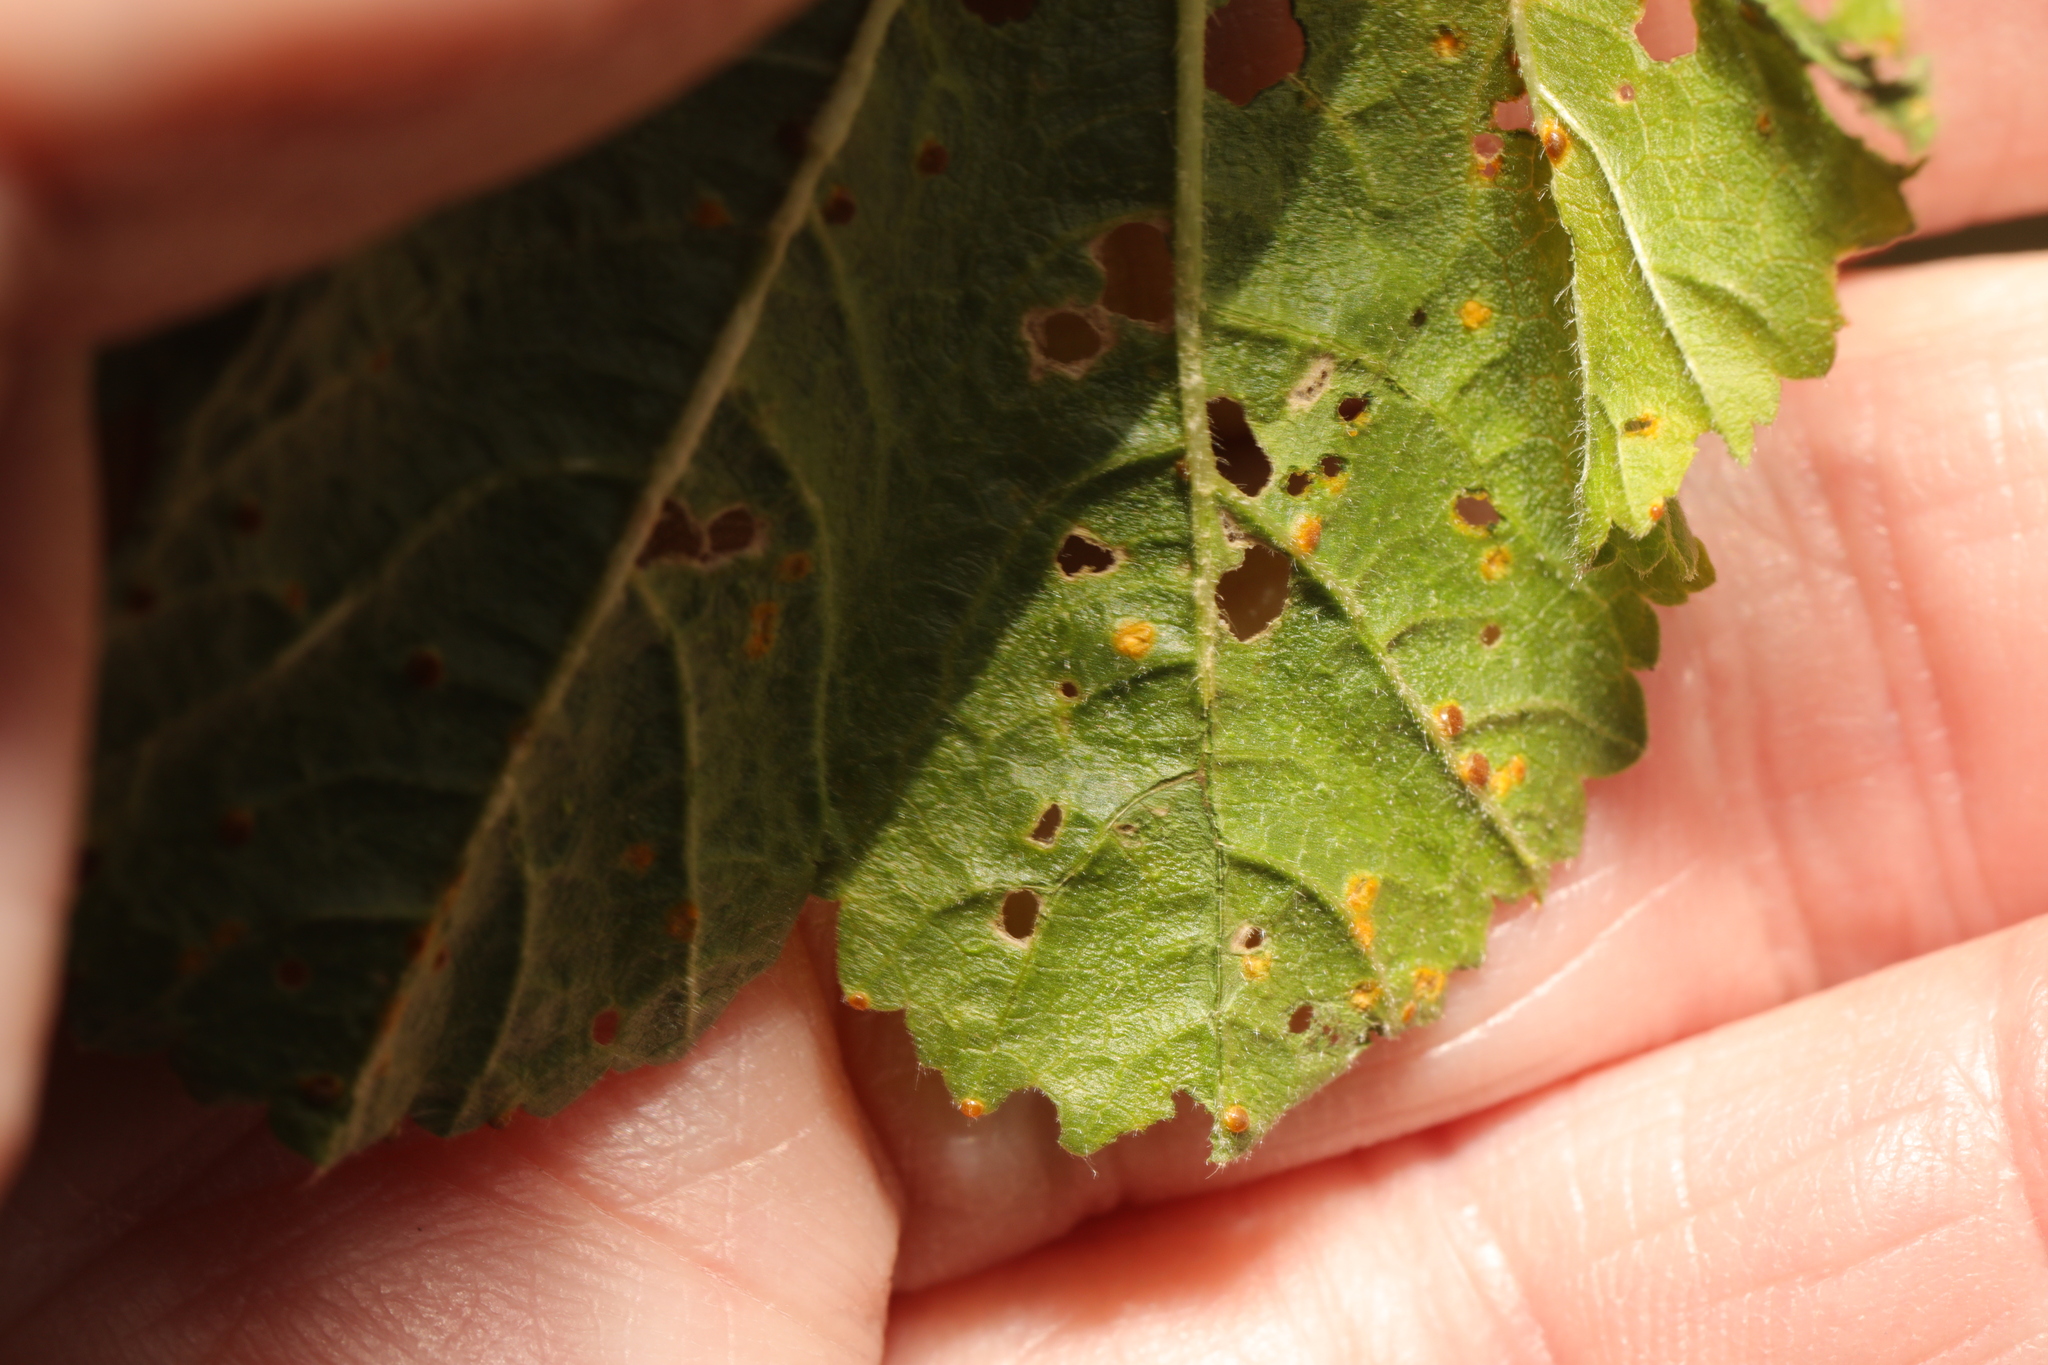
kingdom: Fungi
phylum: Basidiomycota
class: Pucciniomycetes
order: Pucciniales
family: Pucciniaceae
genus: Puccinia
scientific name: Puccinia malvacearum
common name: Hollyhock rust
